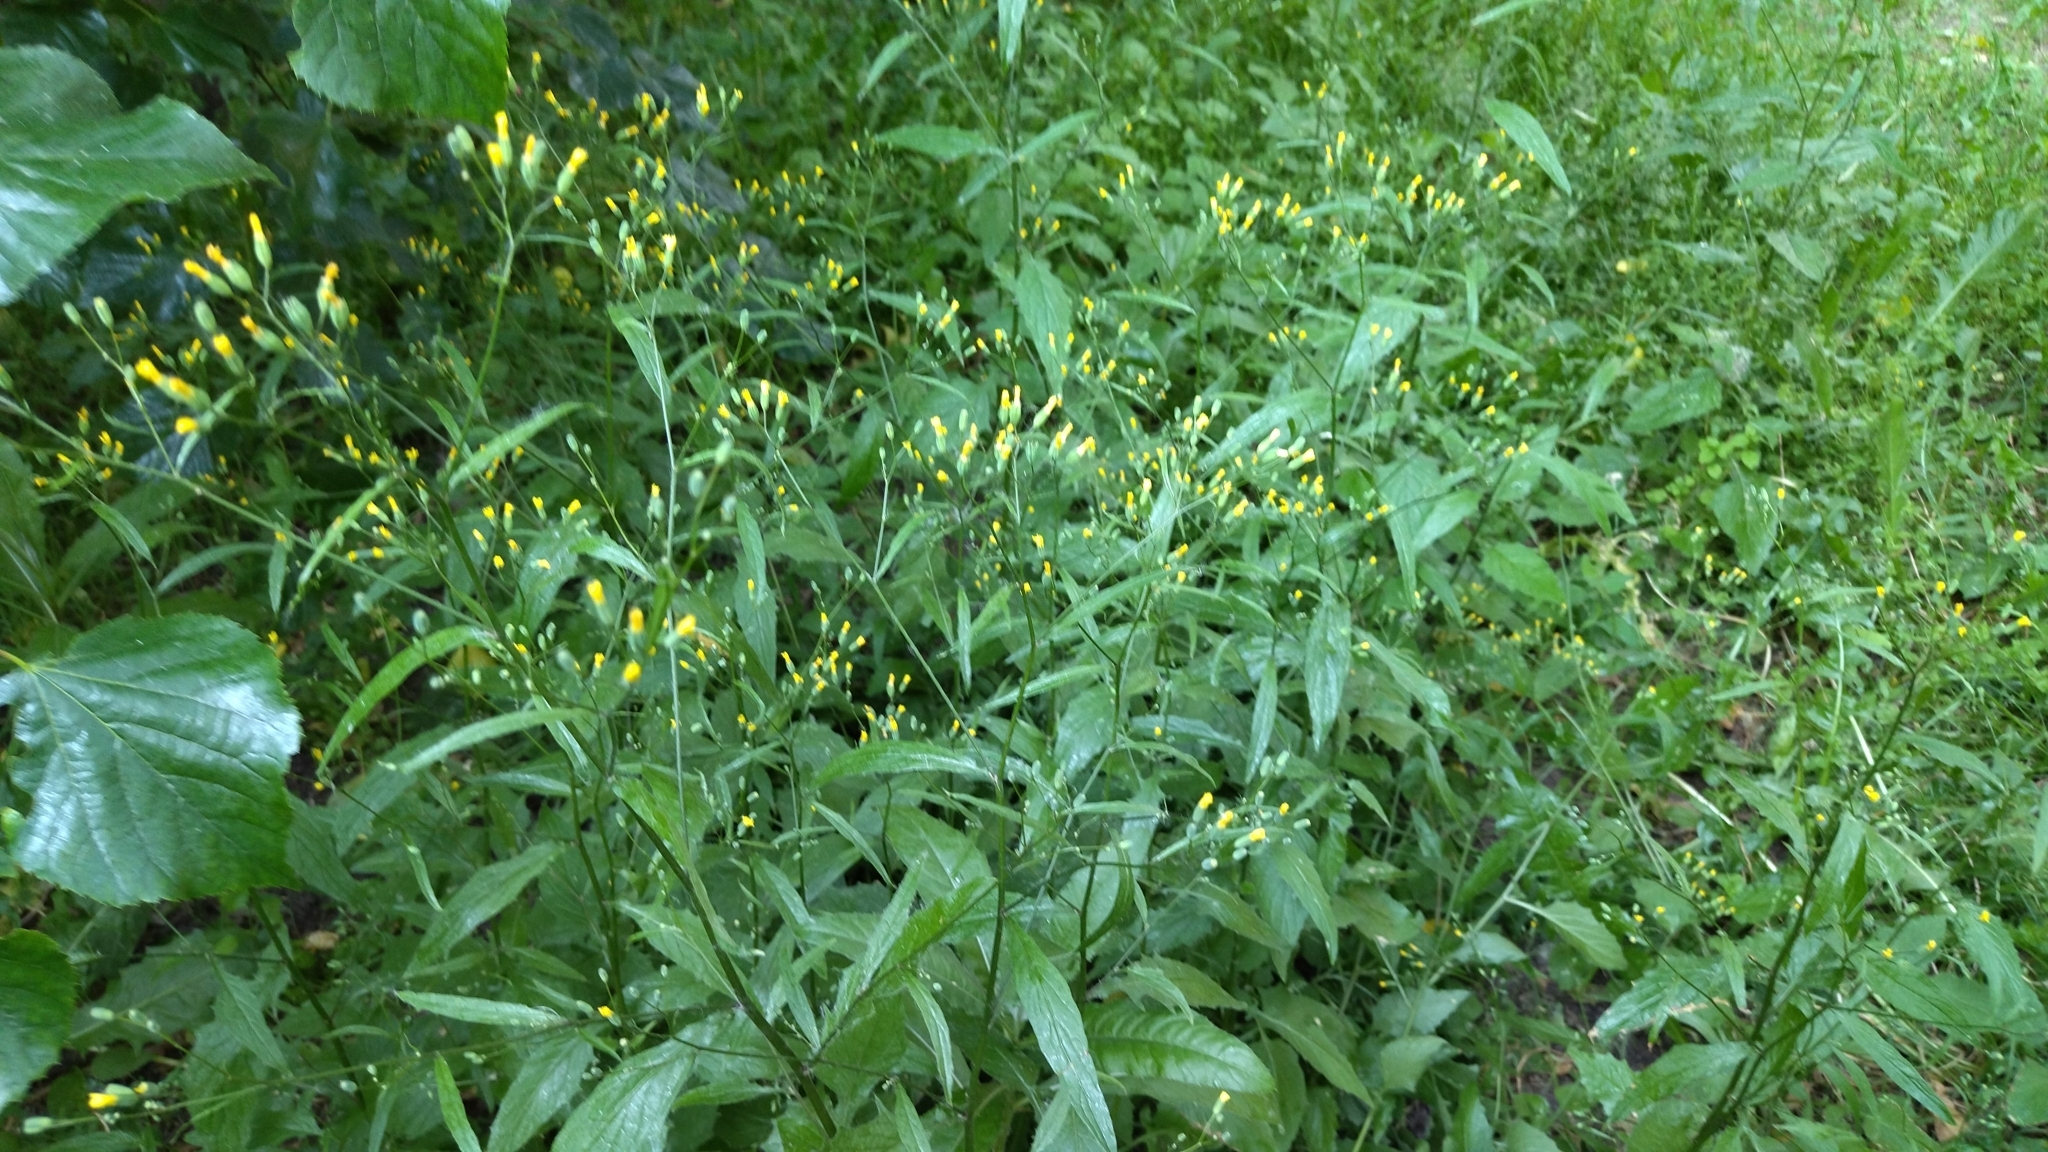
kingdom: Plantae
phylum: Tracheophyta
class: Magnoliopsida
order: Asterales
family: Asteraceae
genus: Lapsana
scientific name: Lapsana communis
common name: Nipplewort
